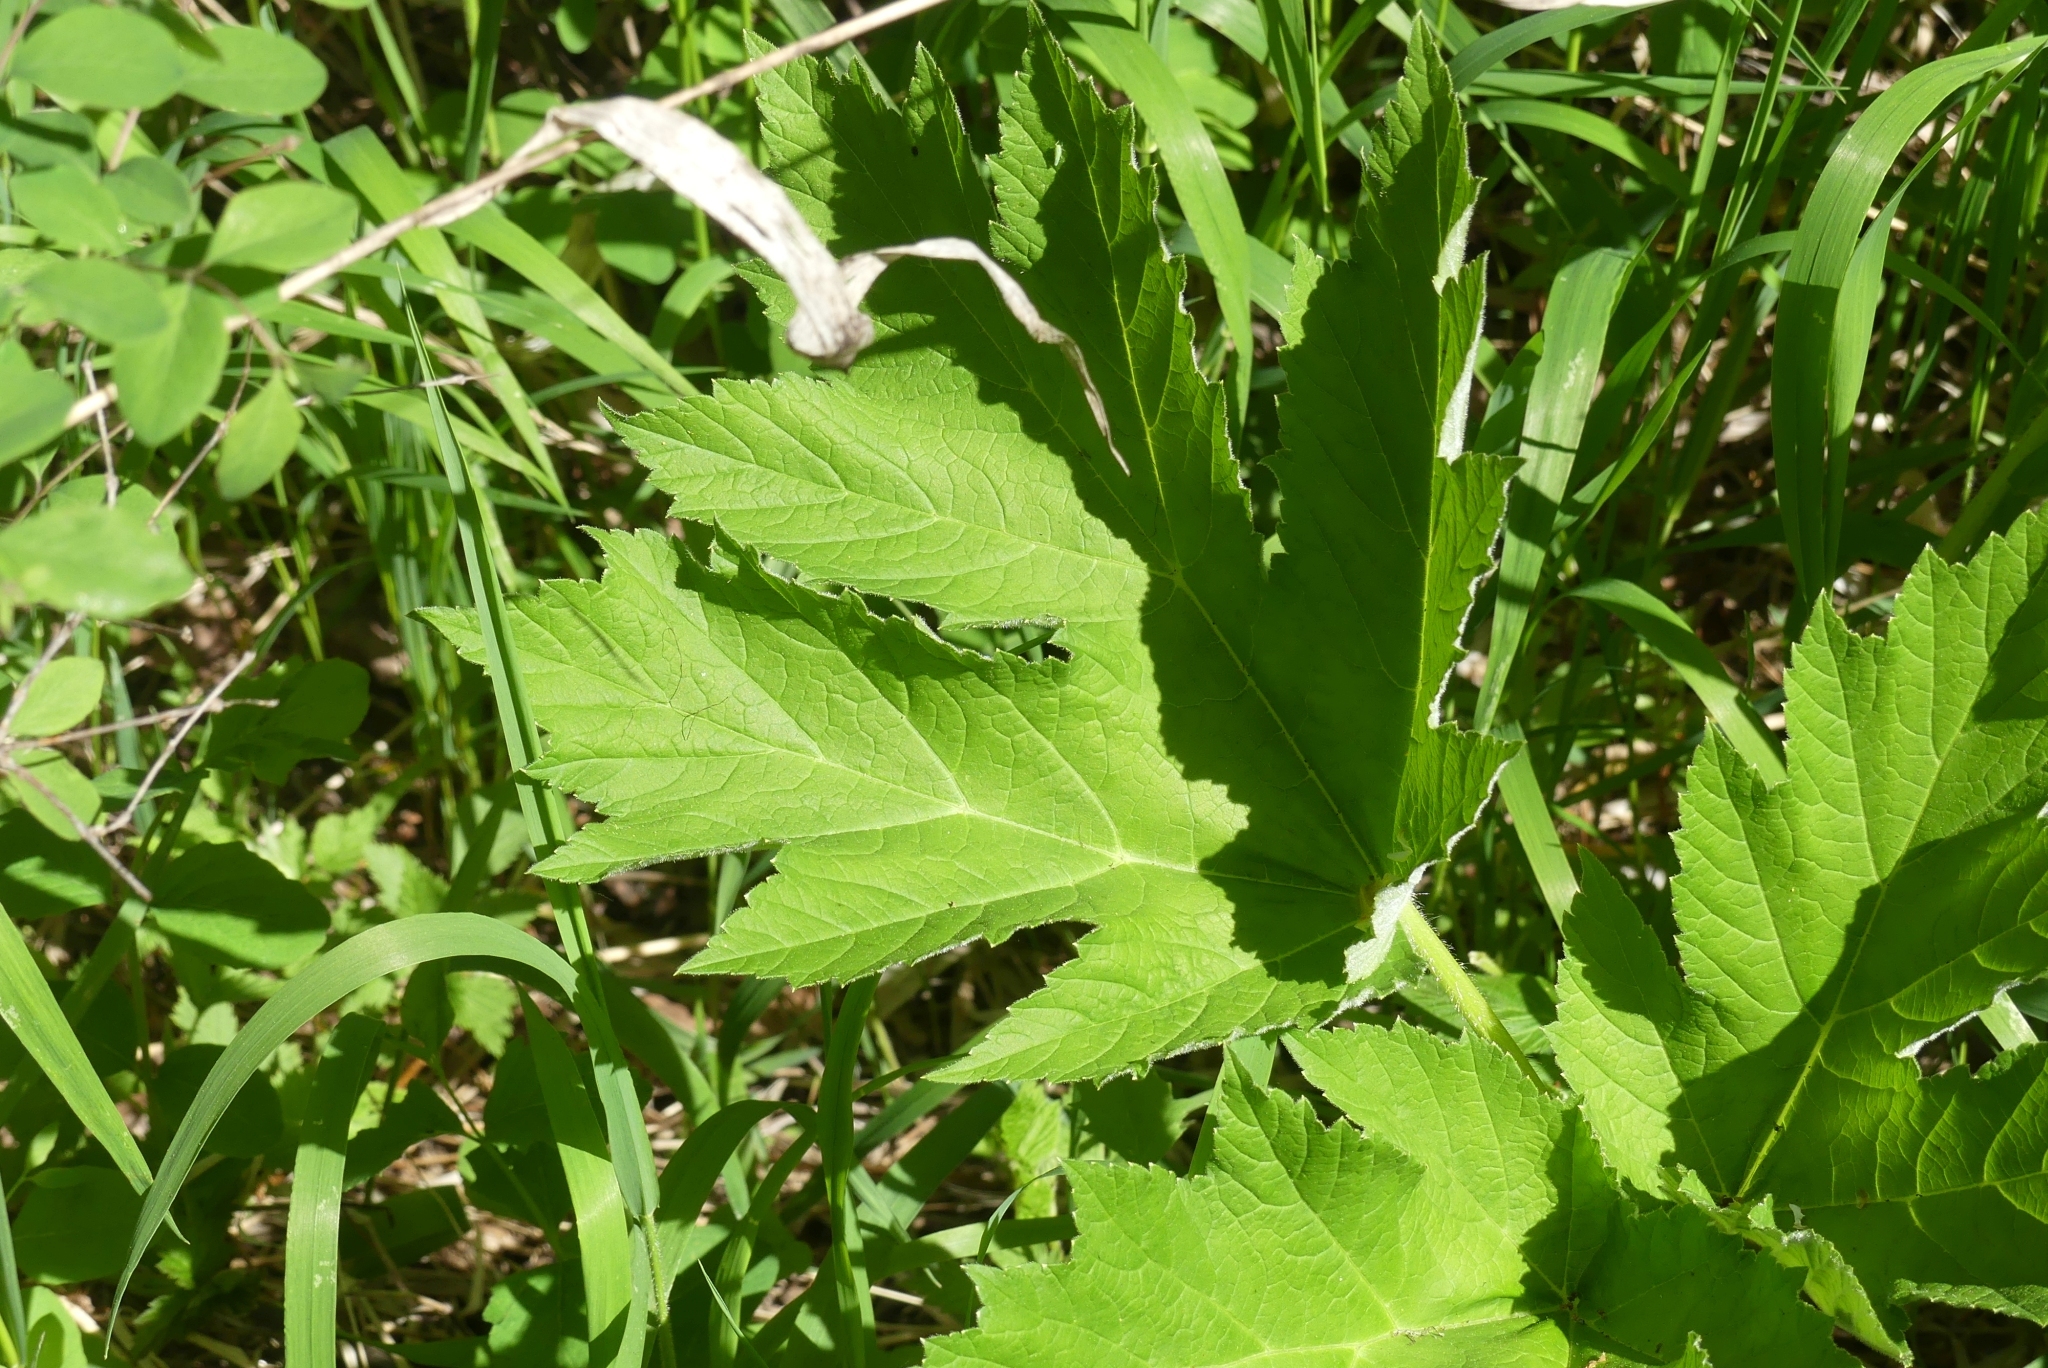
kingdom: Plantae
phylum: Tracheophyta
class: Magnoliopsida
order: Apiales
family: Apiaceae
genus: Heracleum
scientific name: Heracleum maximum
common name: American cow parsnip
